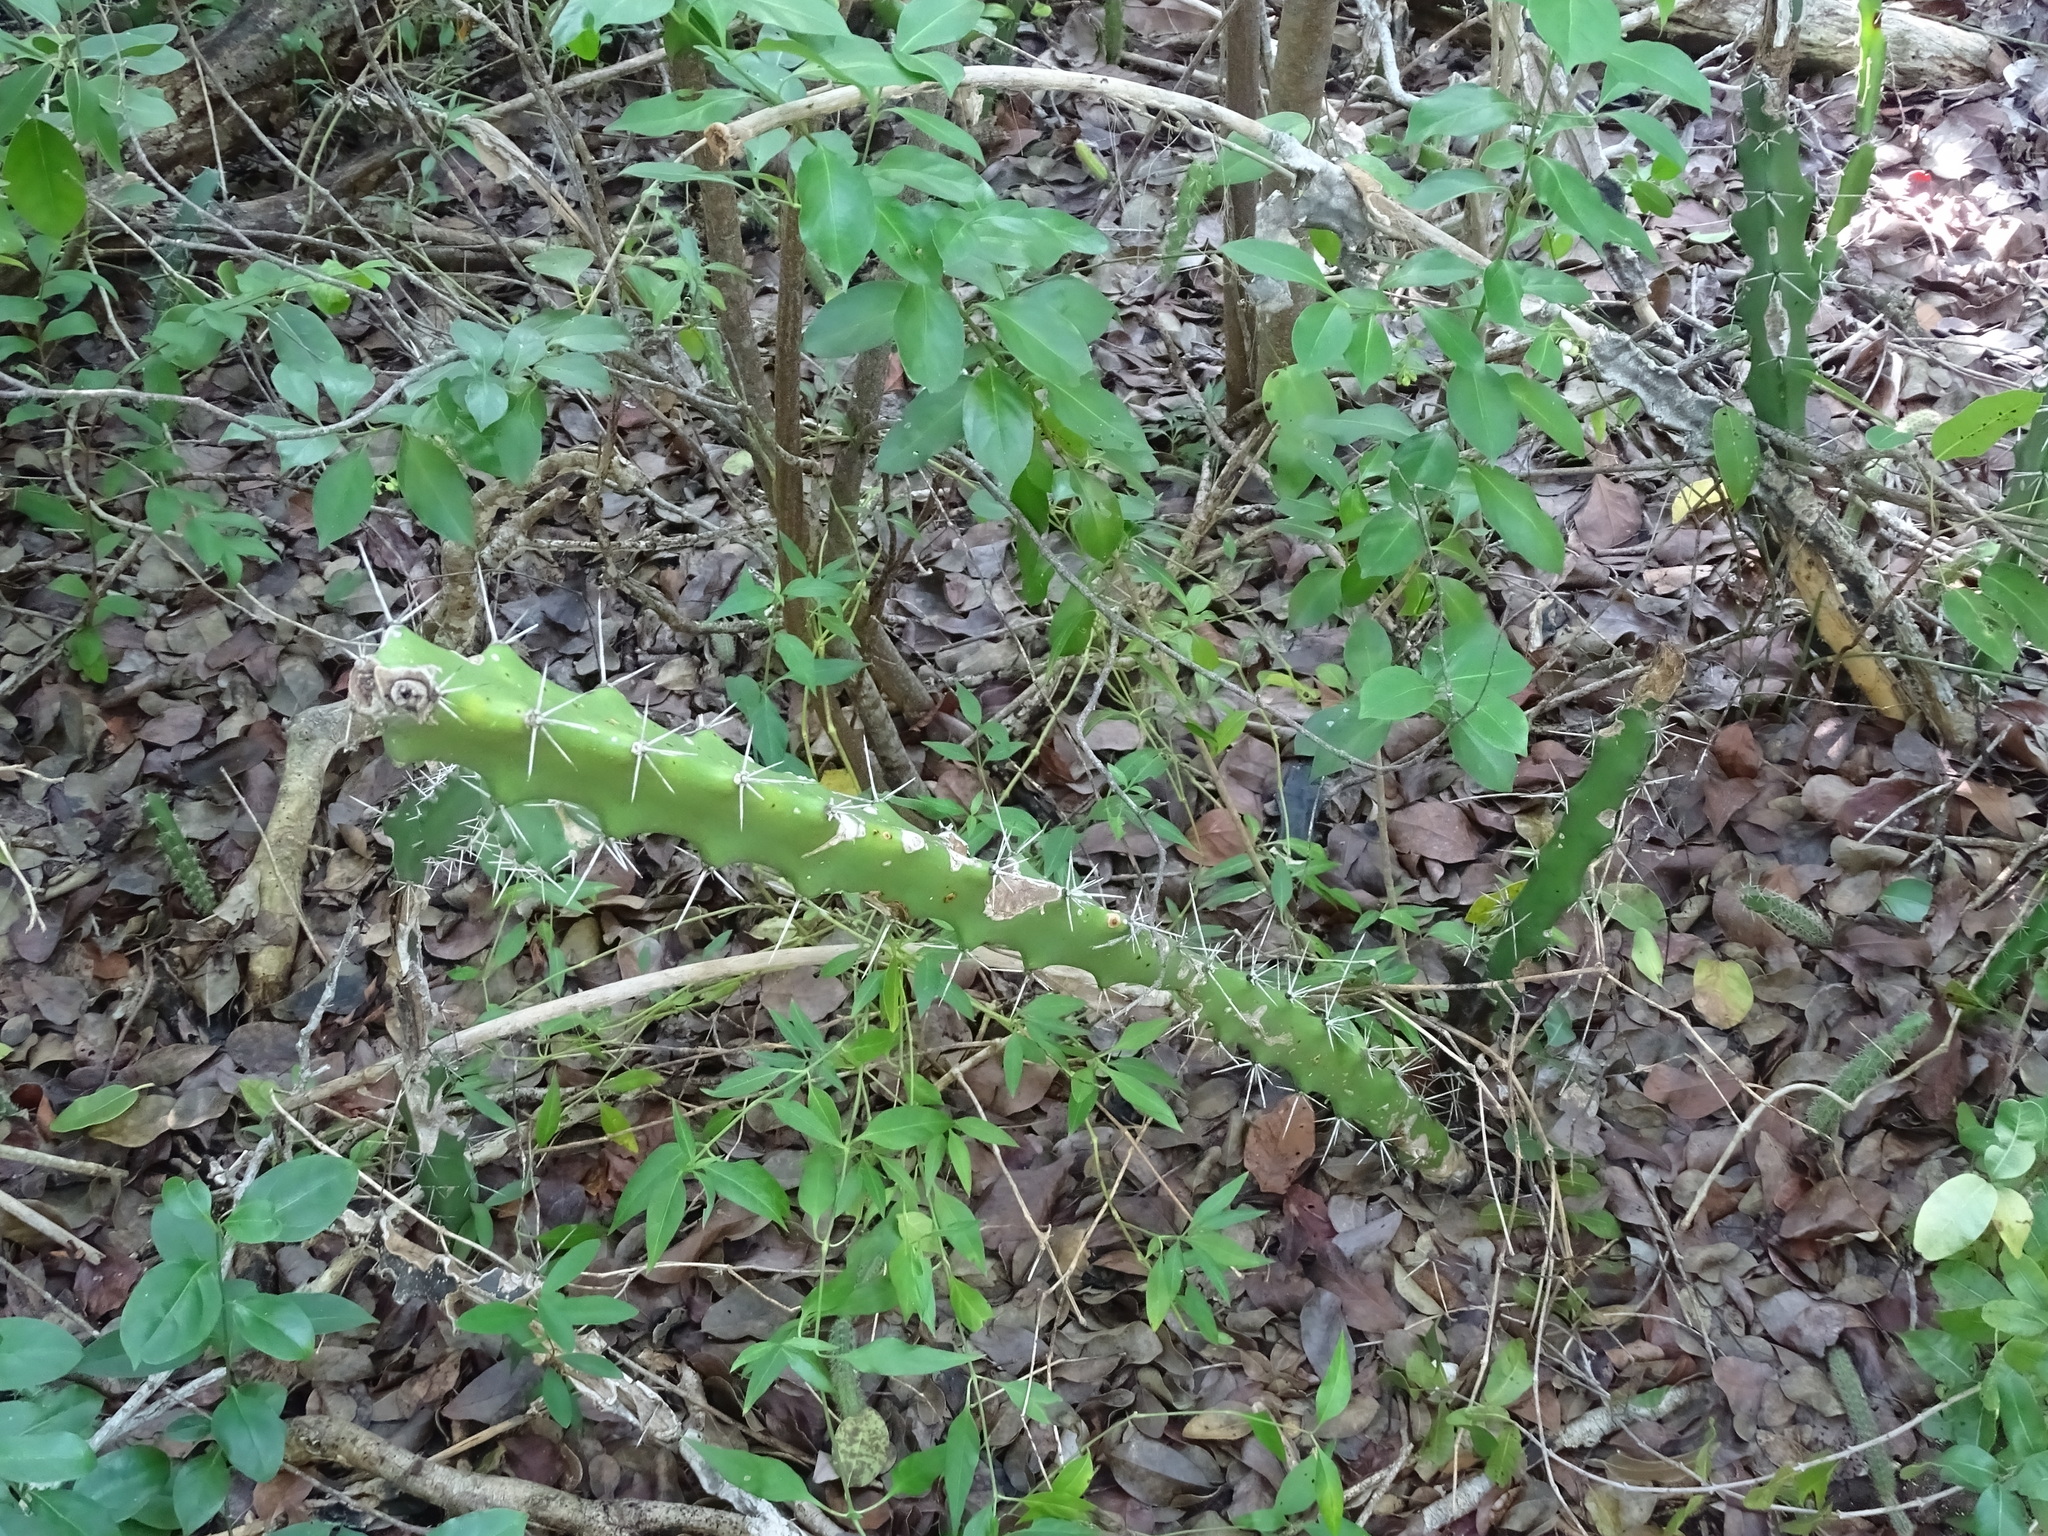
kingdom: Plantae
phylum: Tracheophyta
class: Magnoliopsida
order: Caryophyllales
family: Cactaceae
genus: Acanthocereus
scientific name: Acanthocereus tetragonus
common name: Triangle cactus
